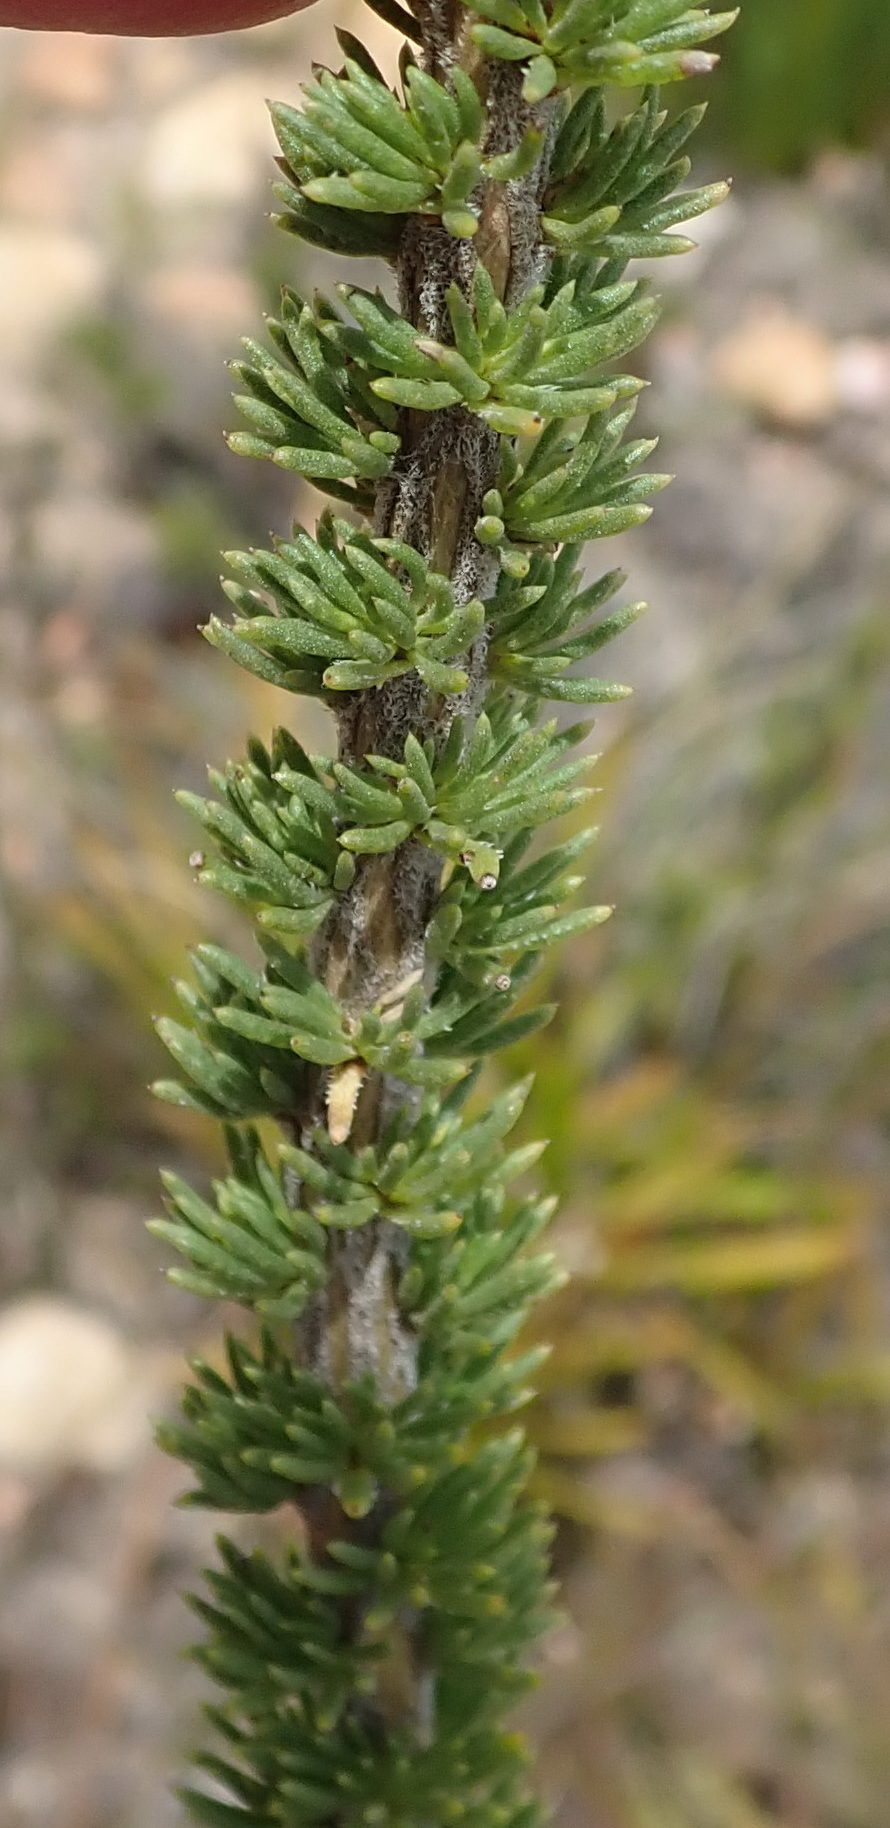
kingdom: Plantae
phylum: Tracheophyta
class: Magnoliopsida
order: Asterales
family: Asteraceae
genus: Pteronia
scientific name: Pteronia camphorata
